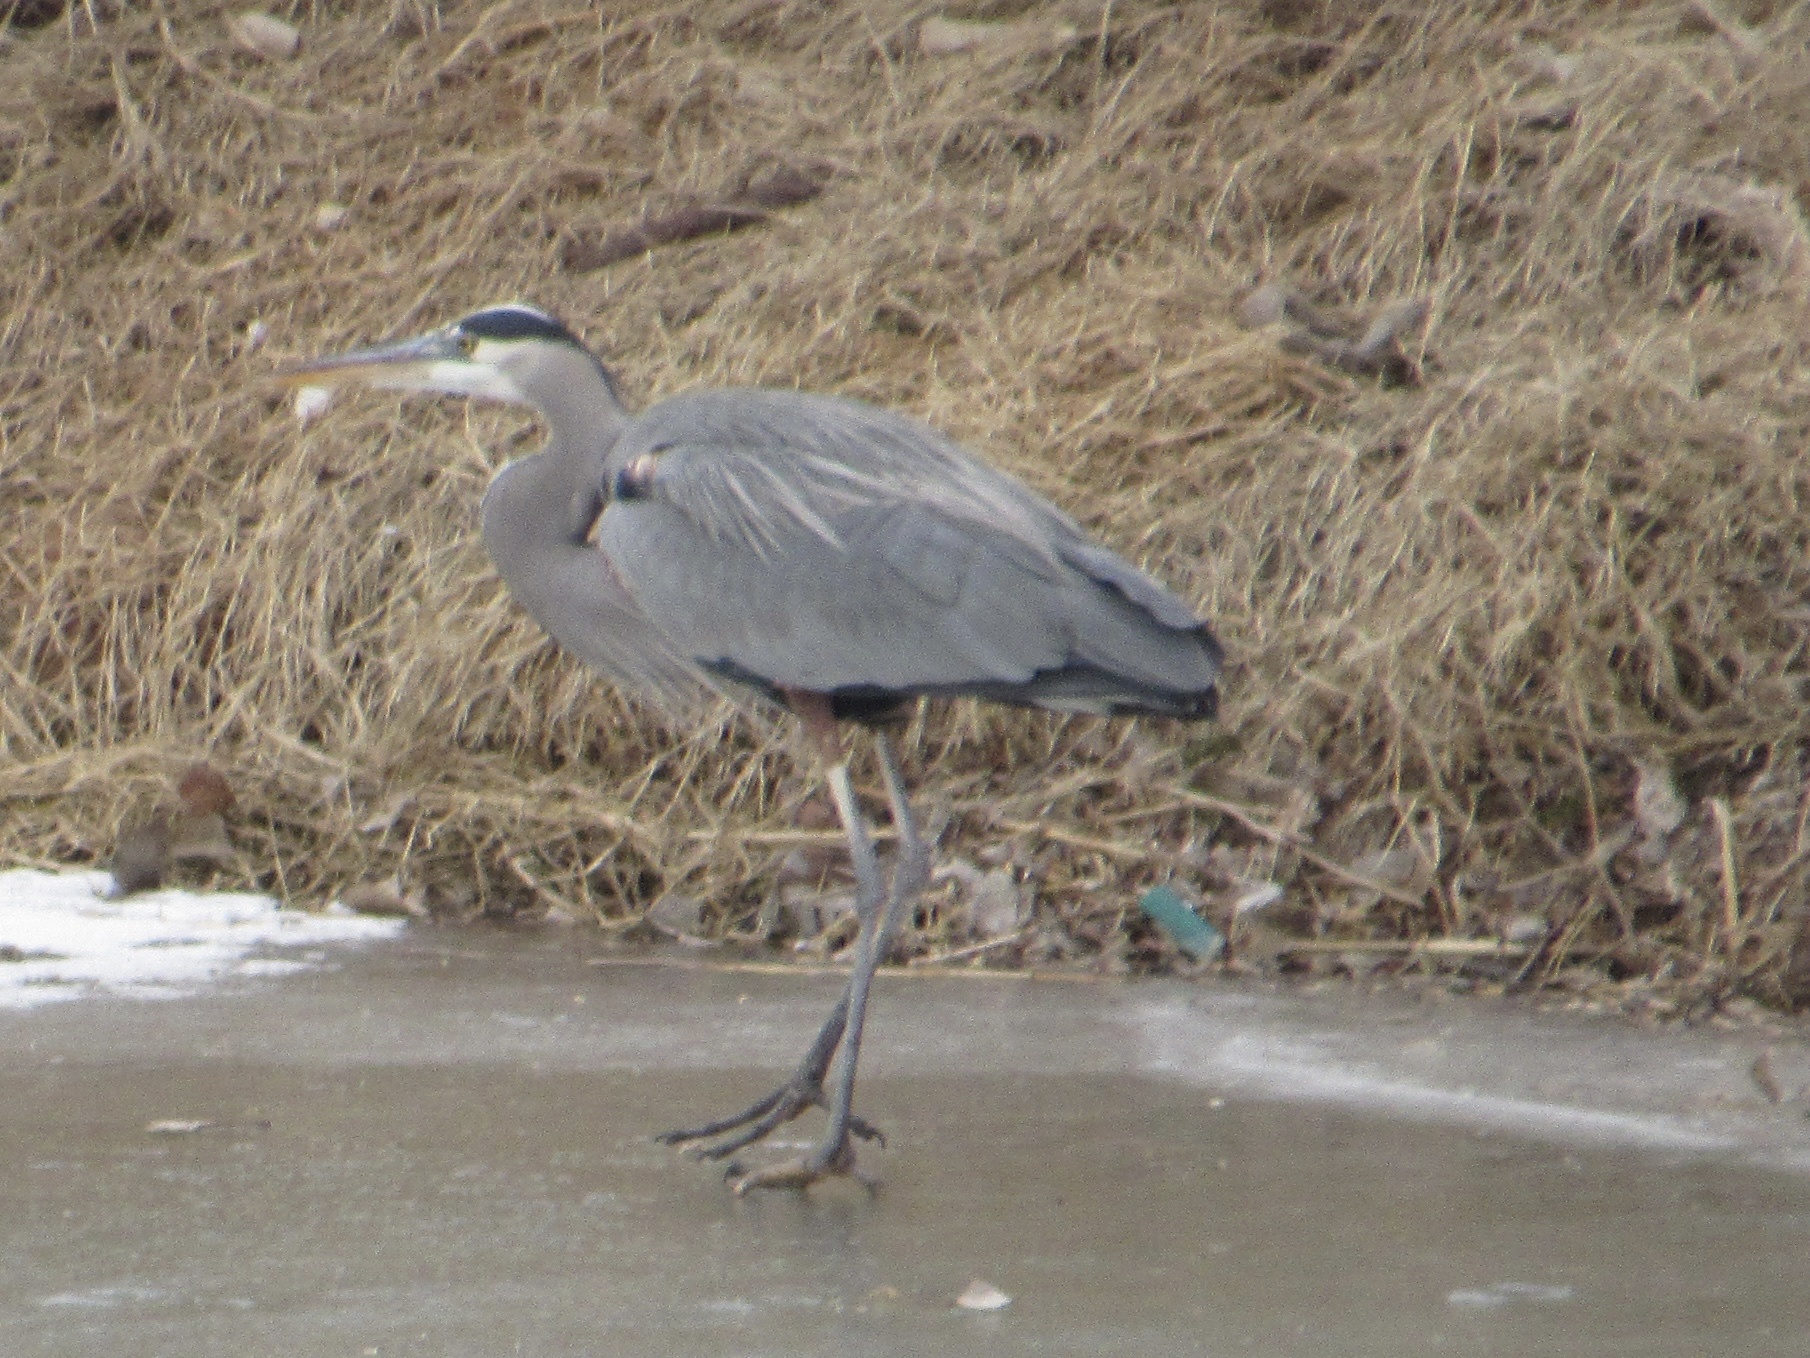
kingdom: Animalia
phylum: Chordata
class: Aves
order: Pelecaniformes
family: Ardeidae
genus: Ardea
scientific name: Ardea herodias
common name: Great blue heron
